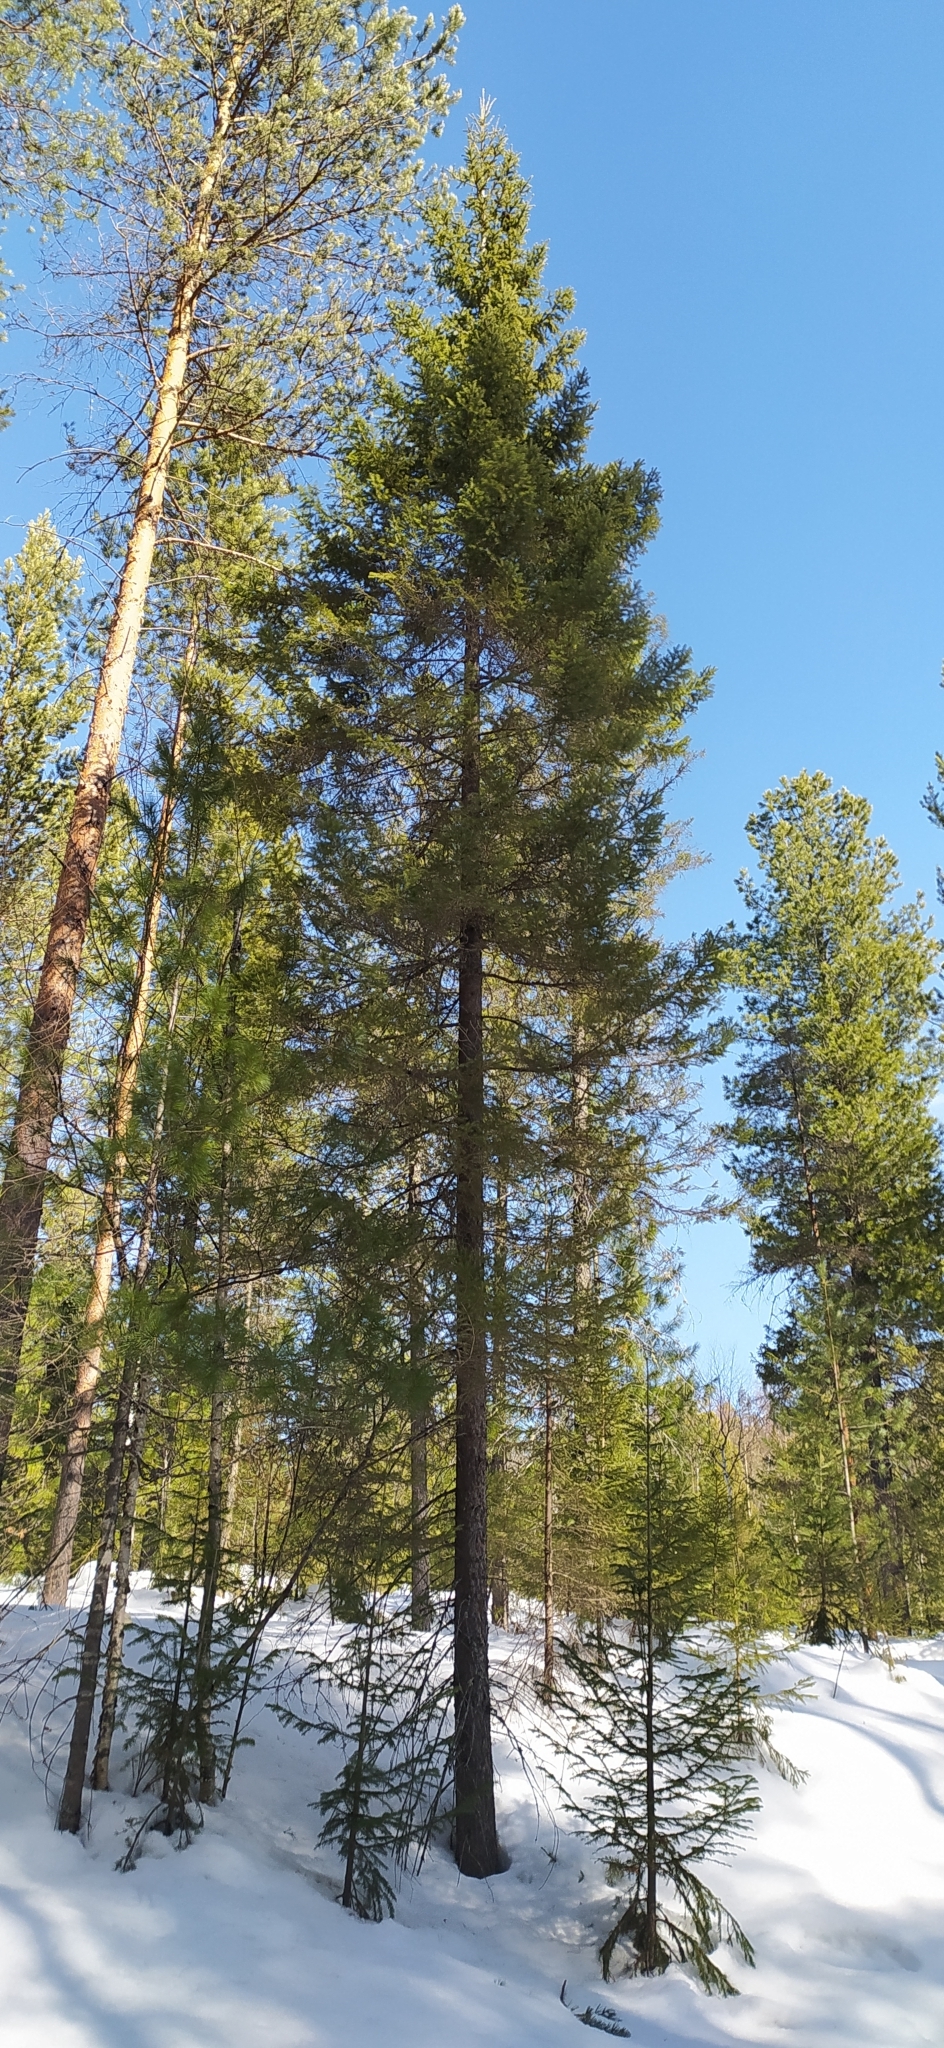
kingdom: Plantae
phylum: Tracheophyta
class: Pinopsida
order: Pinales
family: Pinaceae
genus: Picea
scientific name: Picea obovata
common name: Siberian spruce
